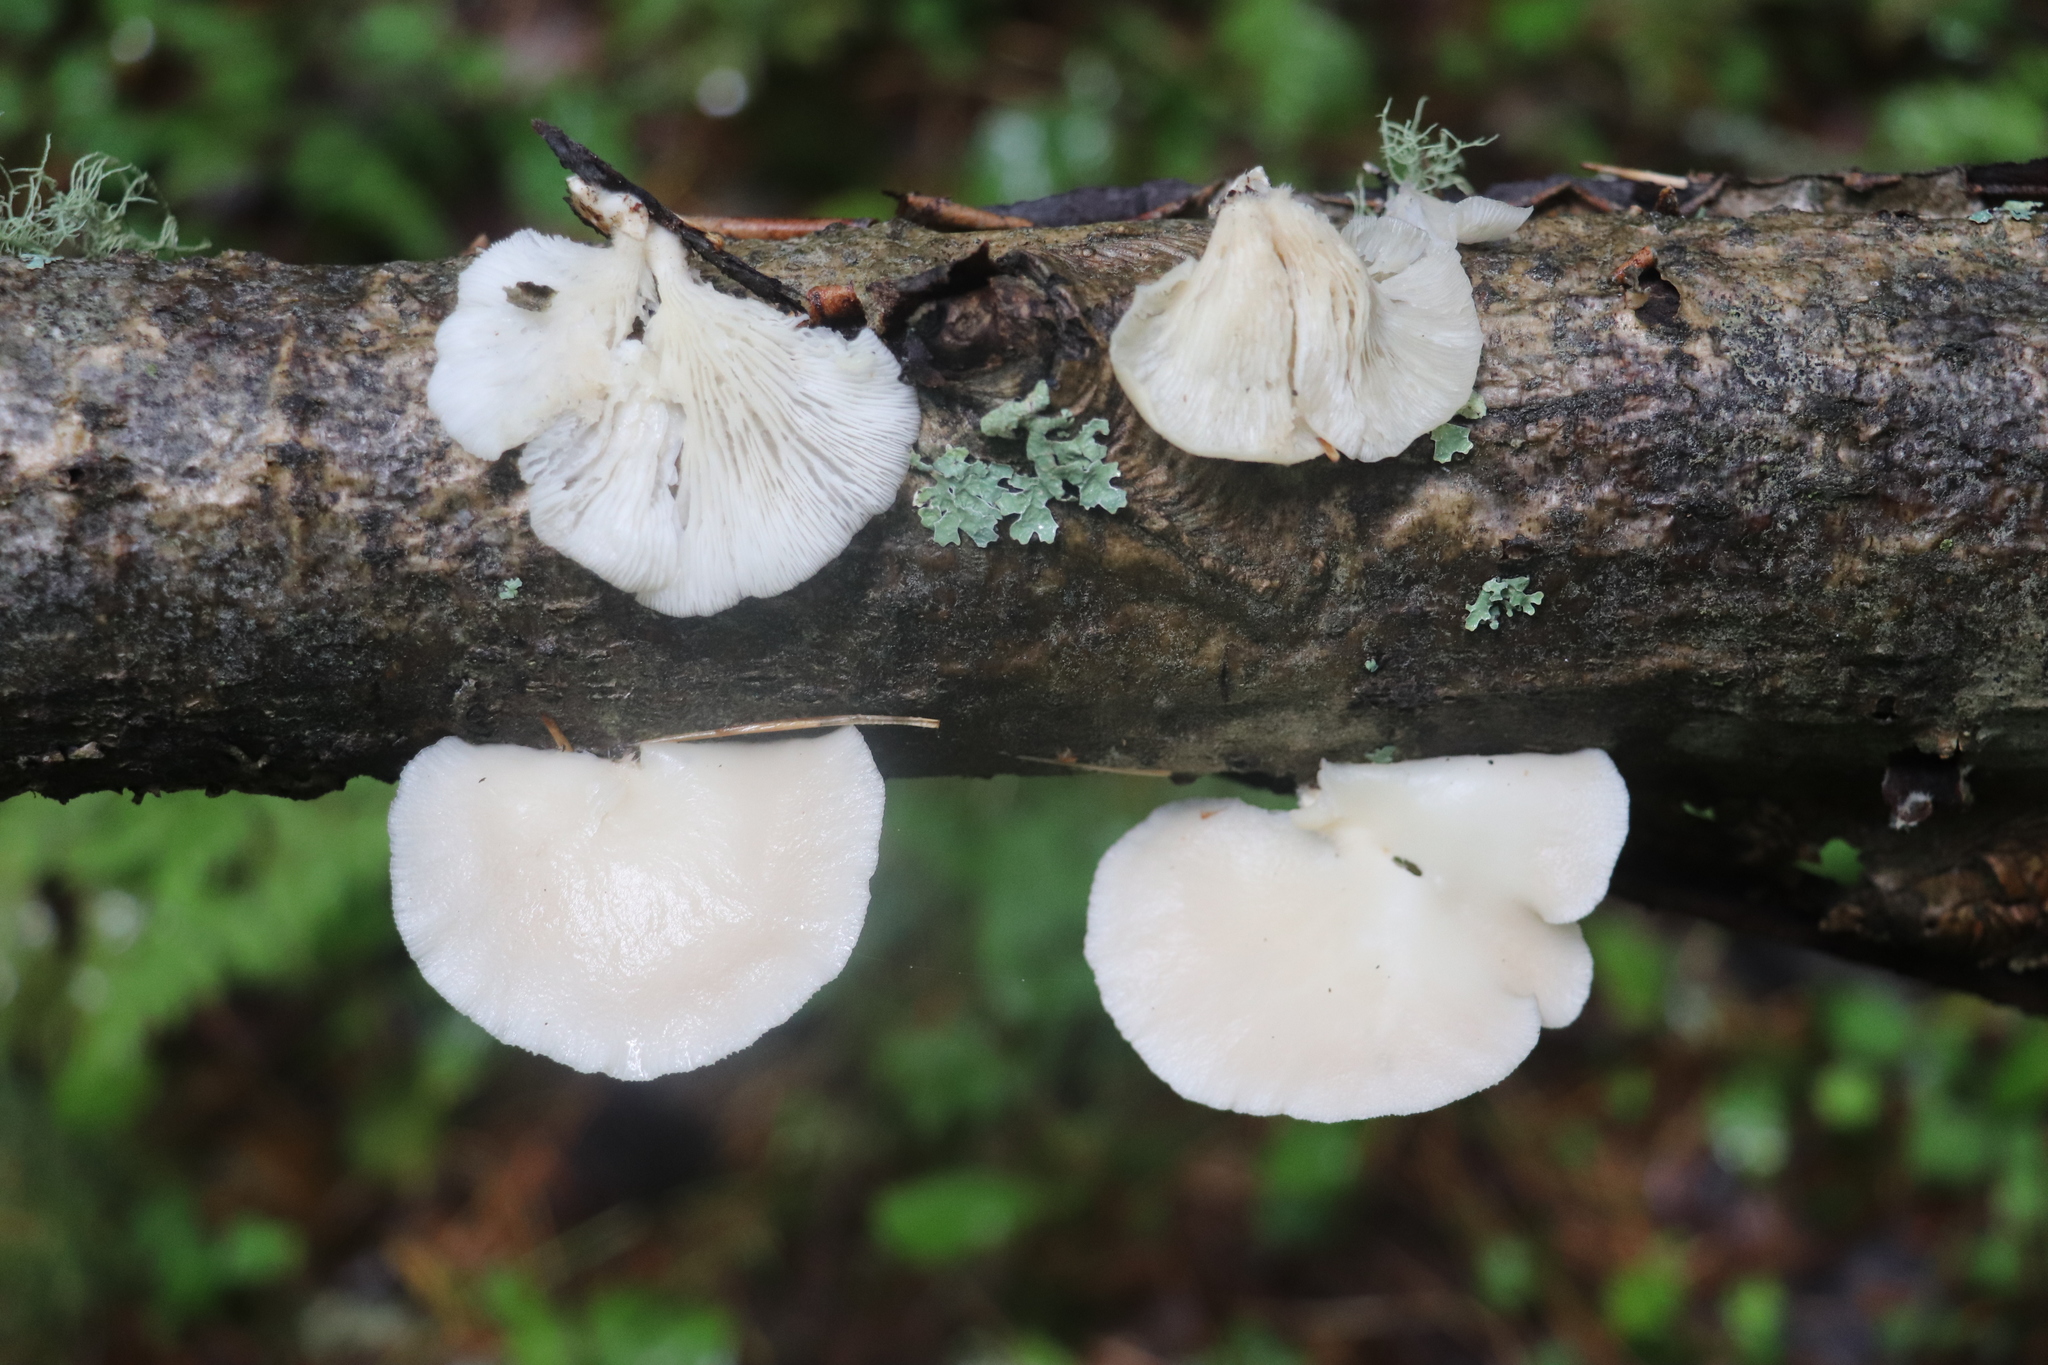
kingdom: Fungi
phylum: Basidiomycota
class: Agaricomycetes
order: Agaricales
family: Pleurotaceae
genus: Pleurotus
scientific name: Pleurotus pulmonarius
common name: Pale oyster
